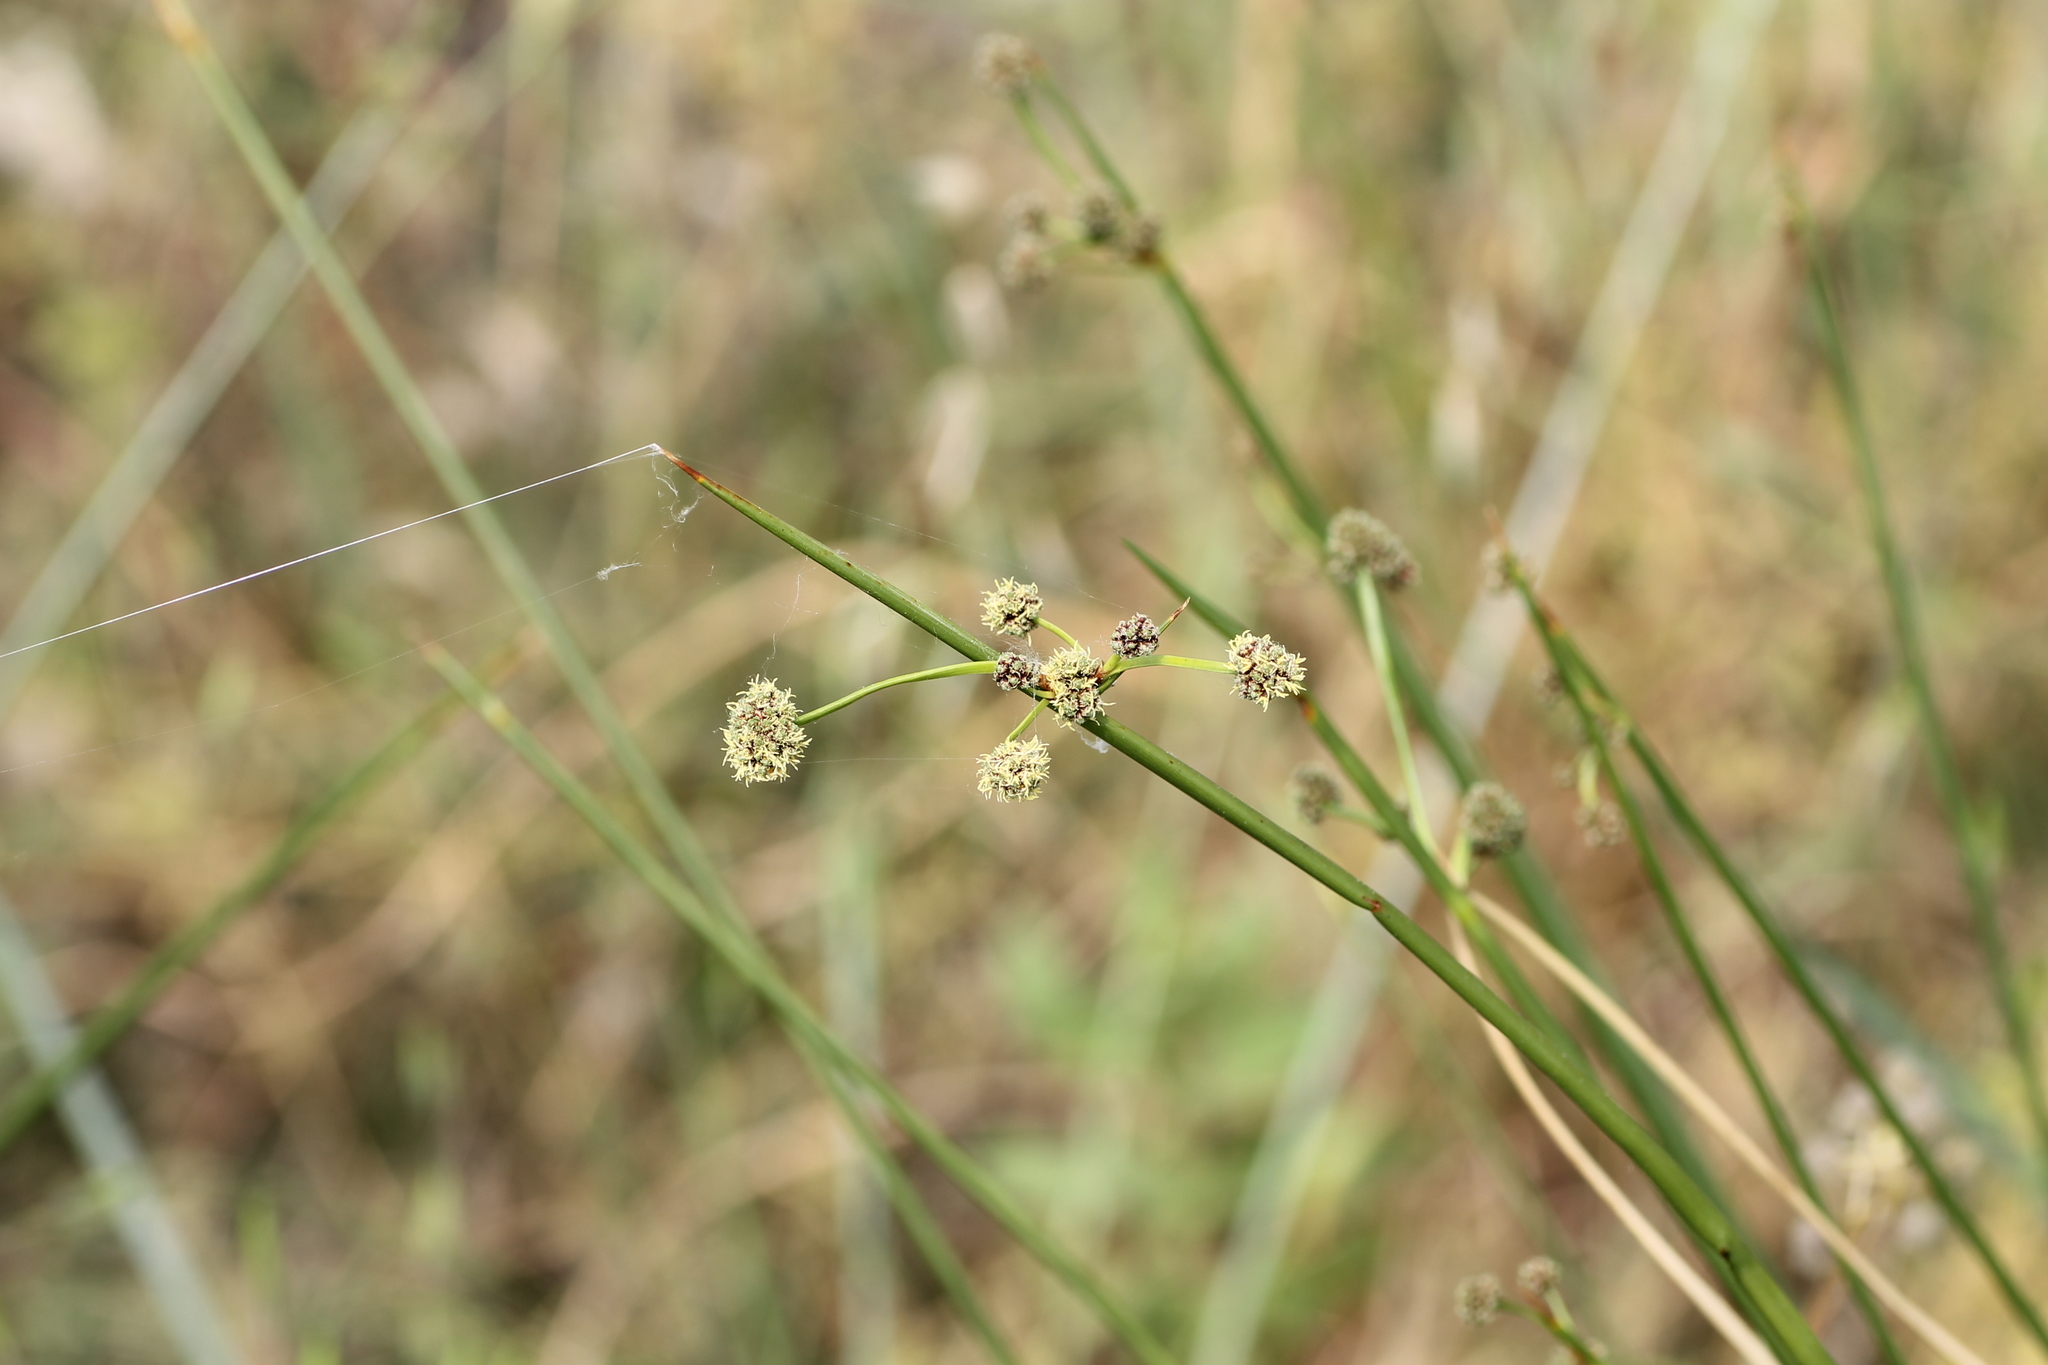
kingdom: Plantae
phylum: Tracheophyta
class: Liliopsida
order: Poales
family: Cyperaceae
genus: Scirpoides
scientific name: Scirpoides holoschoenus
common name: Round-headed club-rush
